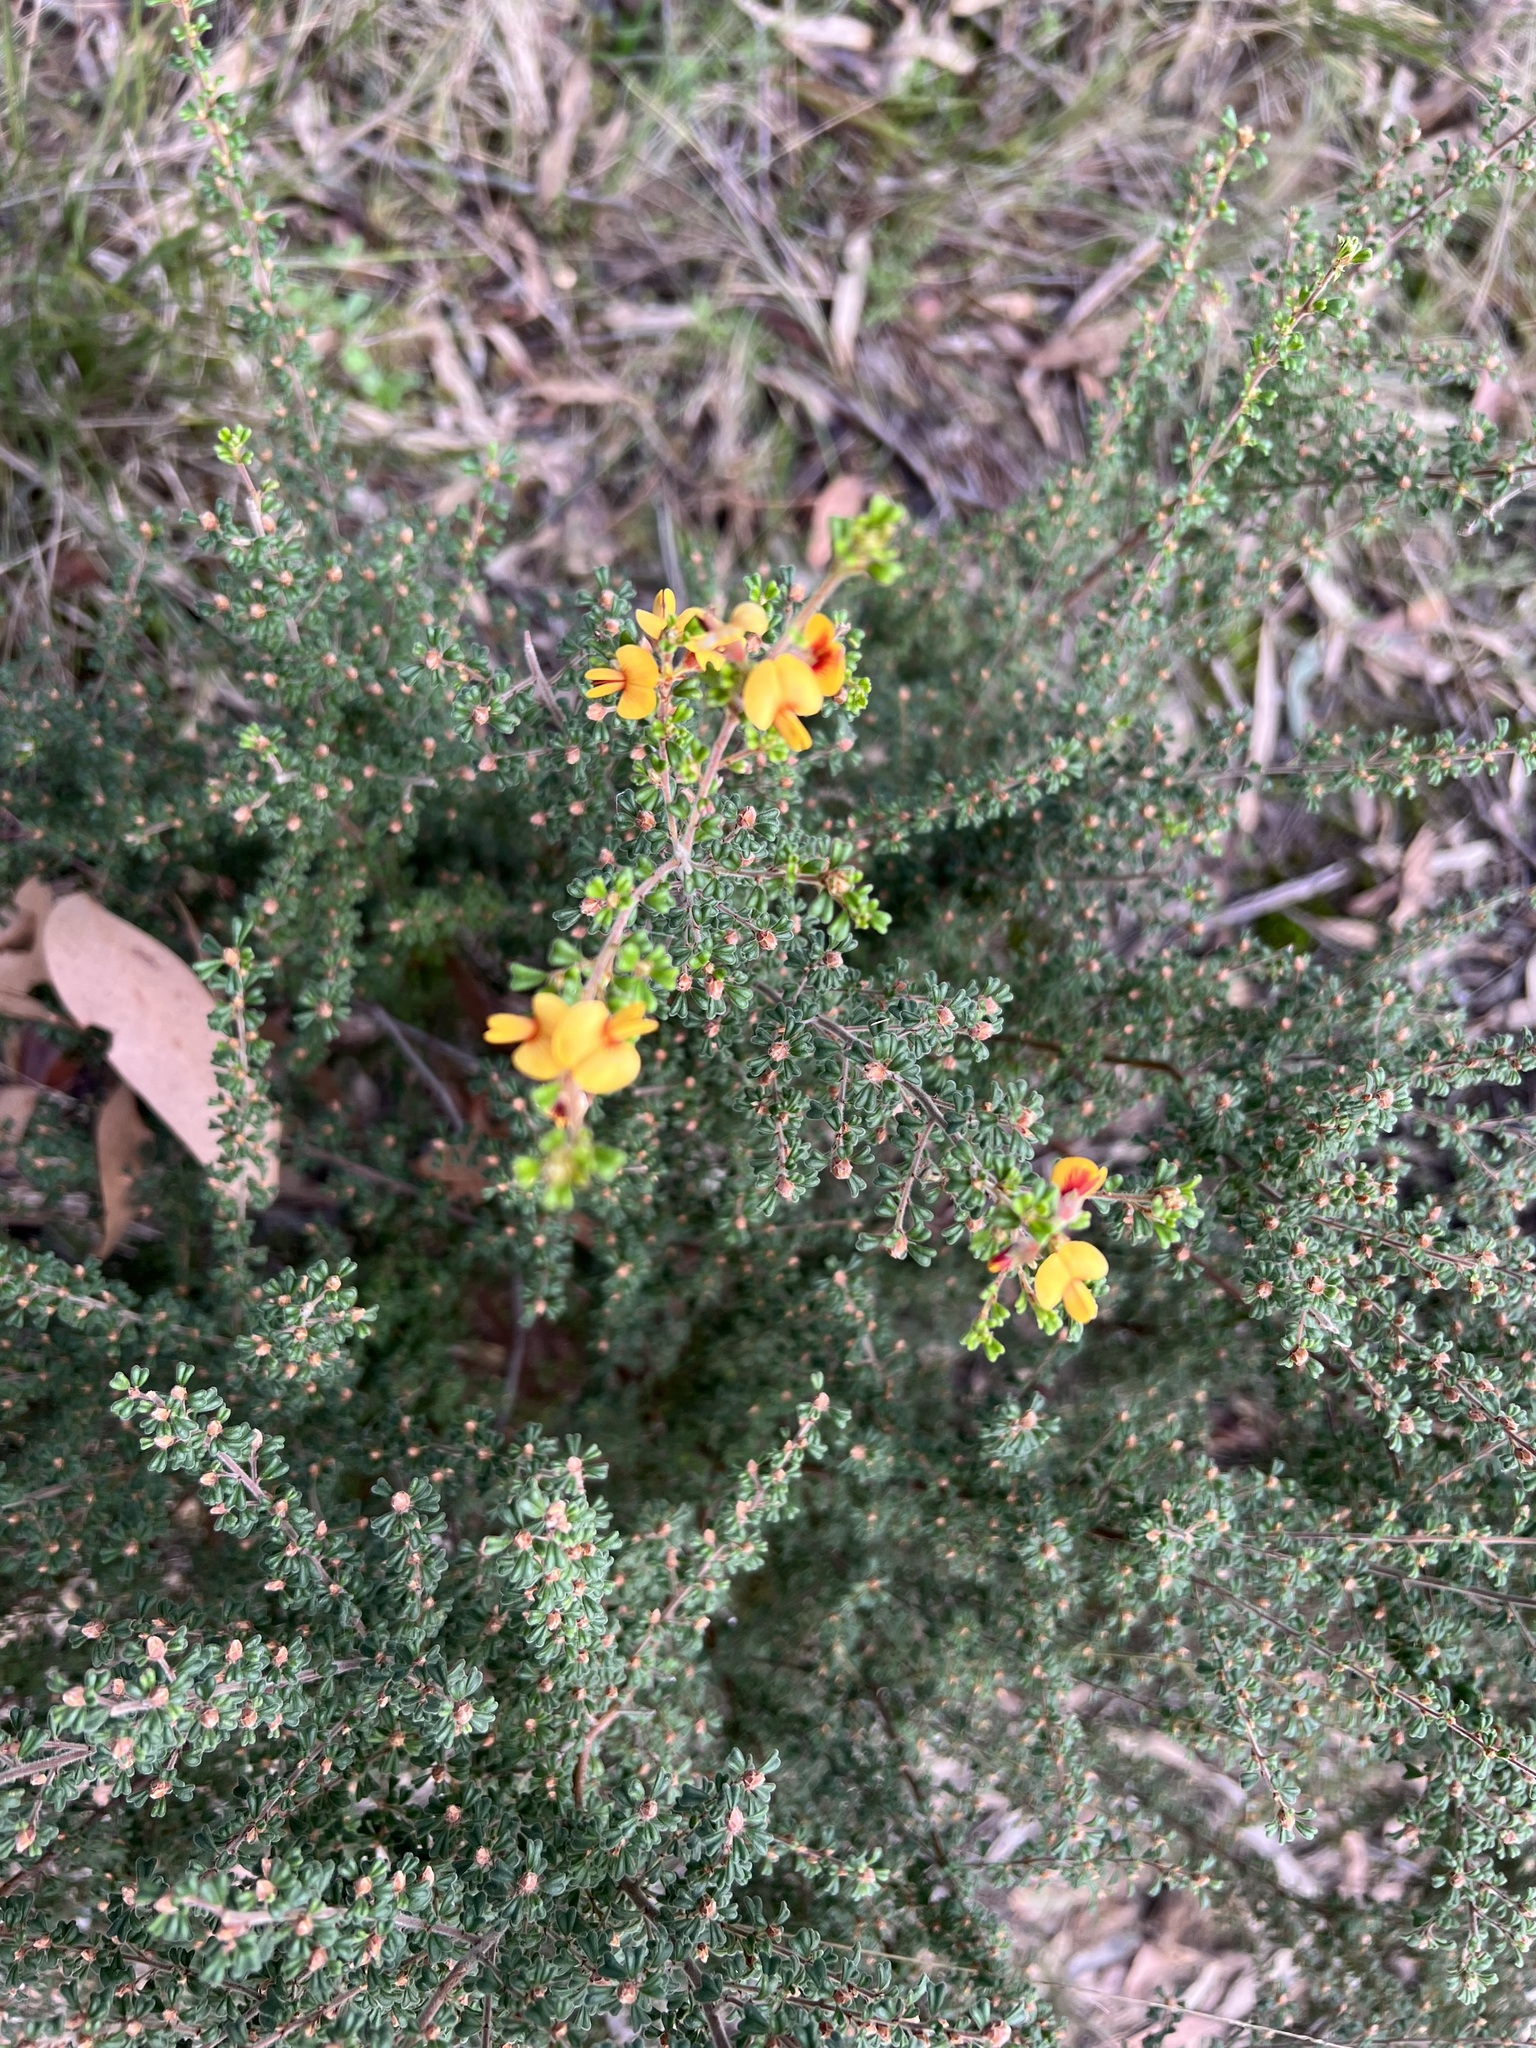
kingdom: Plantae
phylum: Tracheophyta
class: Magnoliopsida
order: Fabales
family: Fabaceae
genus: Pultenaea
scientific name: Pultenaea scabra
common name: Rough bush-pea
